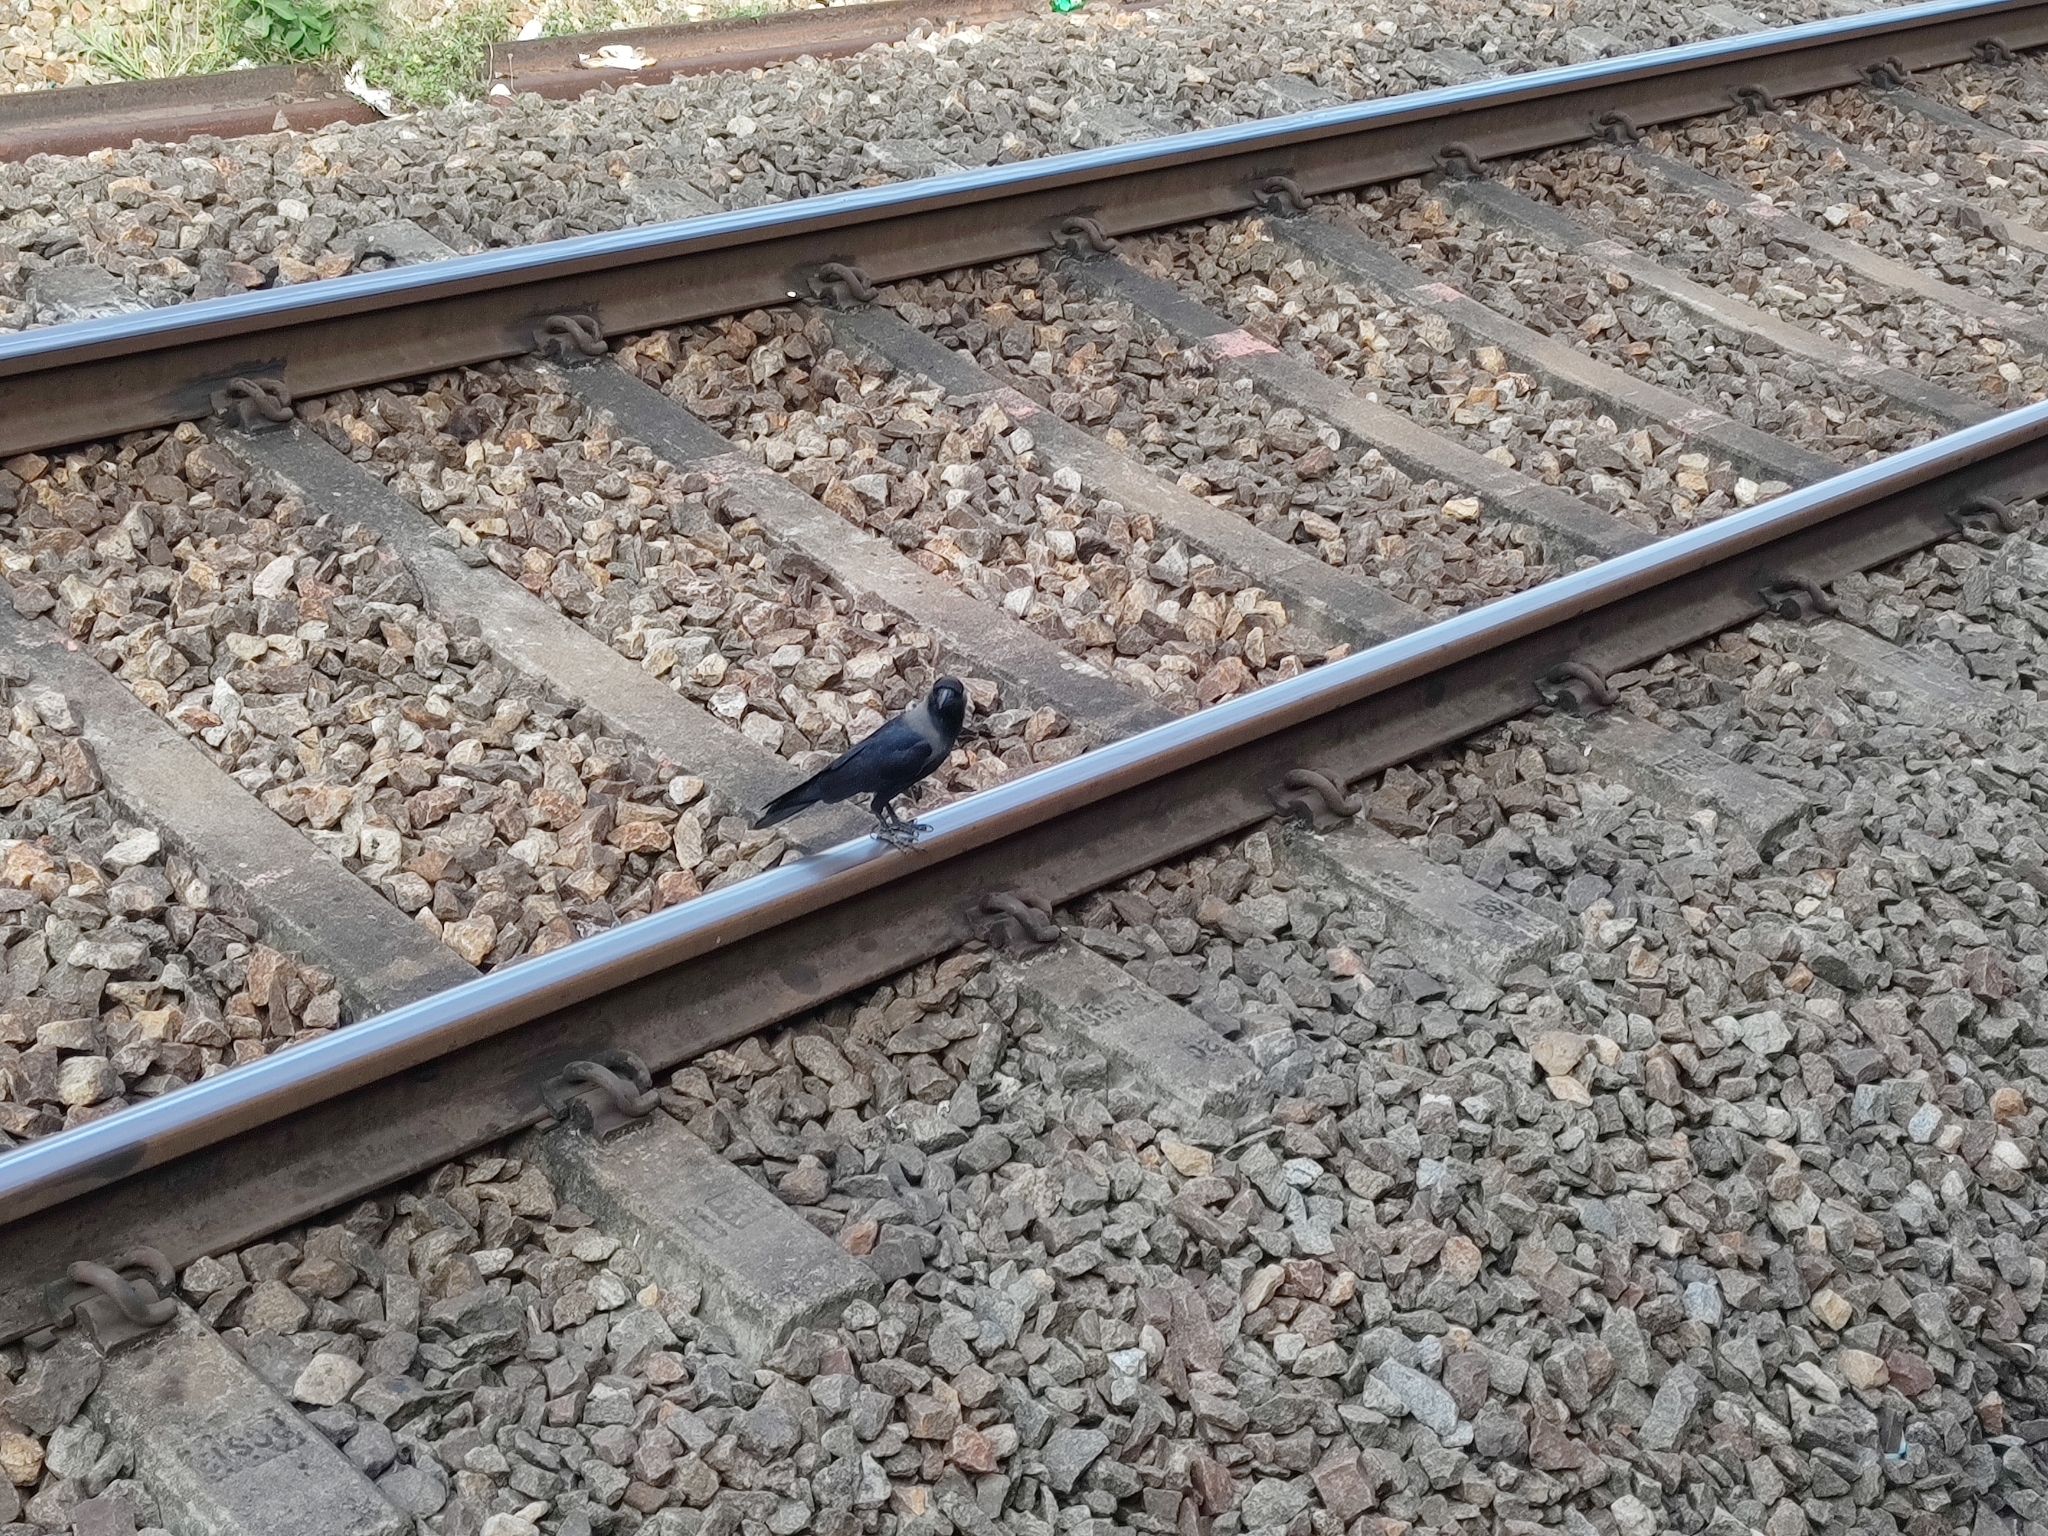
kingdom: Animalia
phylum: Chordata
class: Aves
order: Passeriformes
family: Corvidae
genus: Corvus
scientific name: Corvus splendens
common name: House crow
